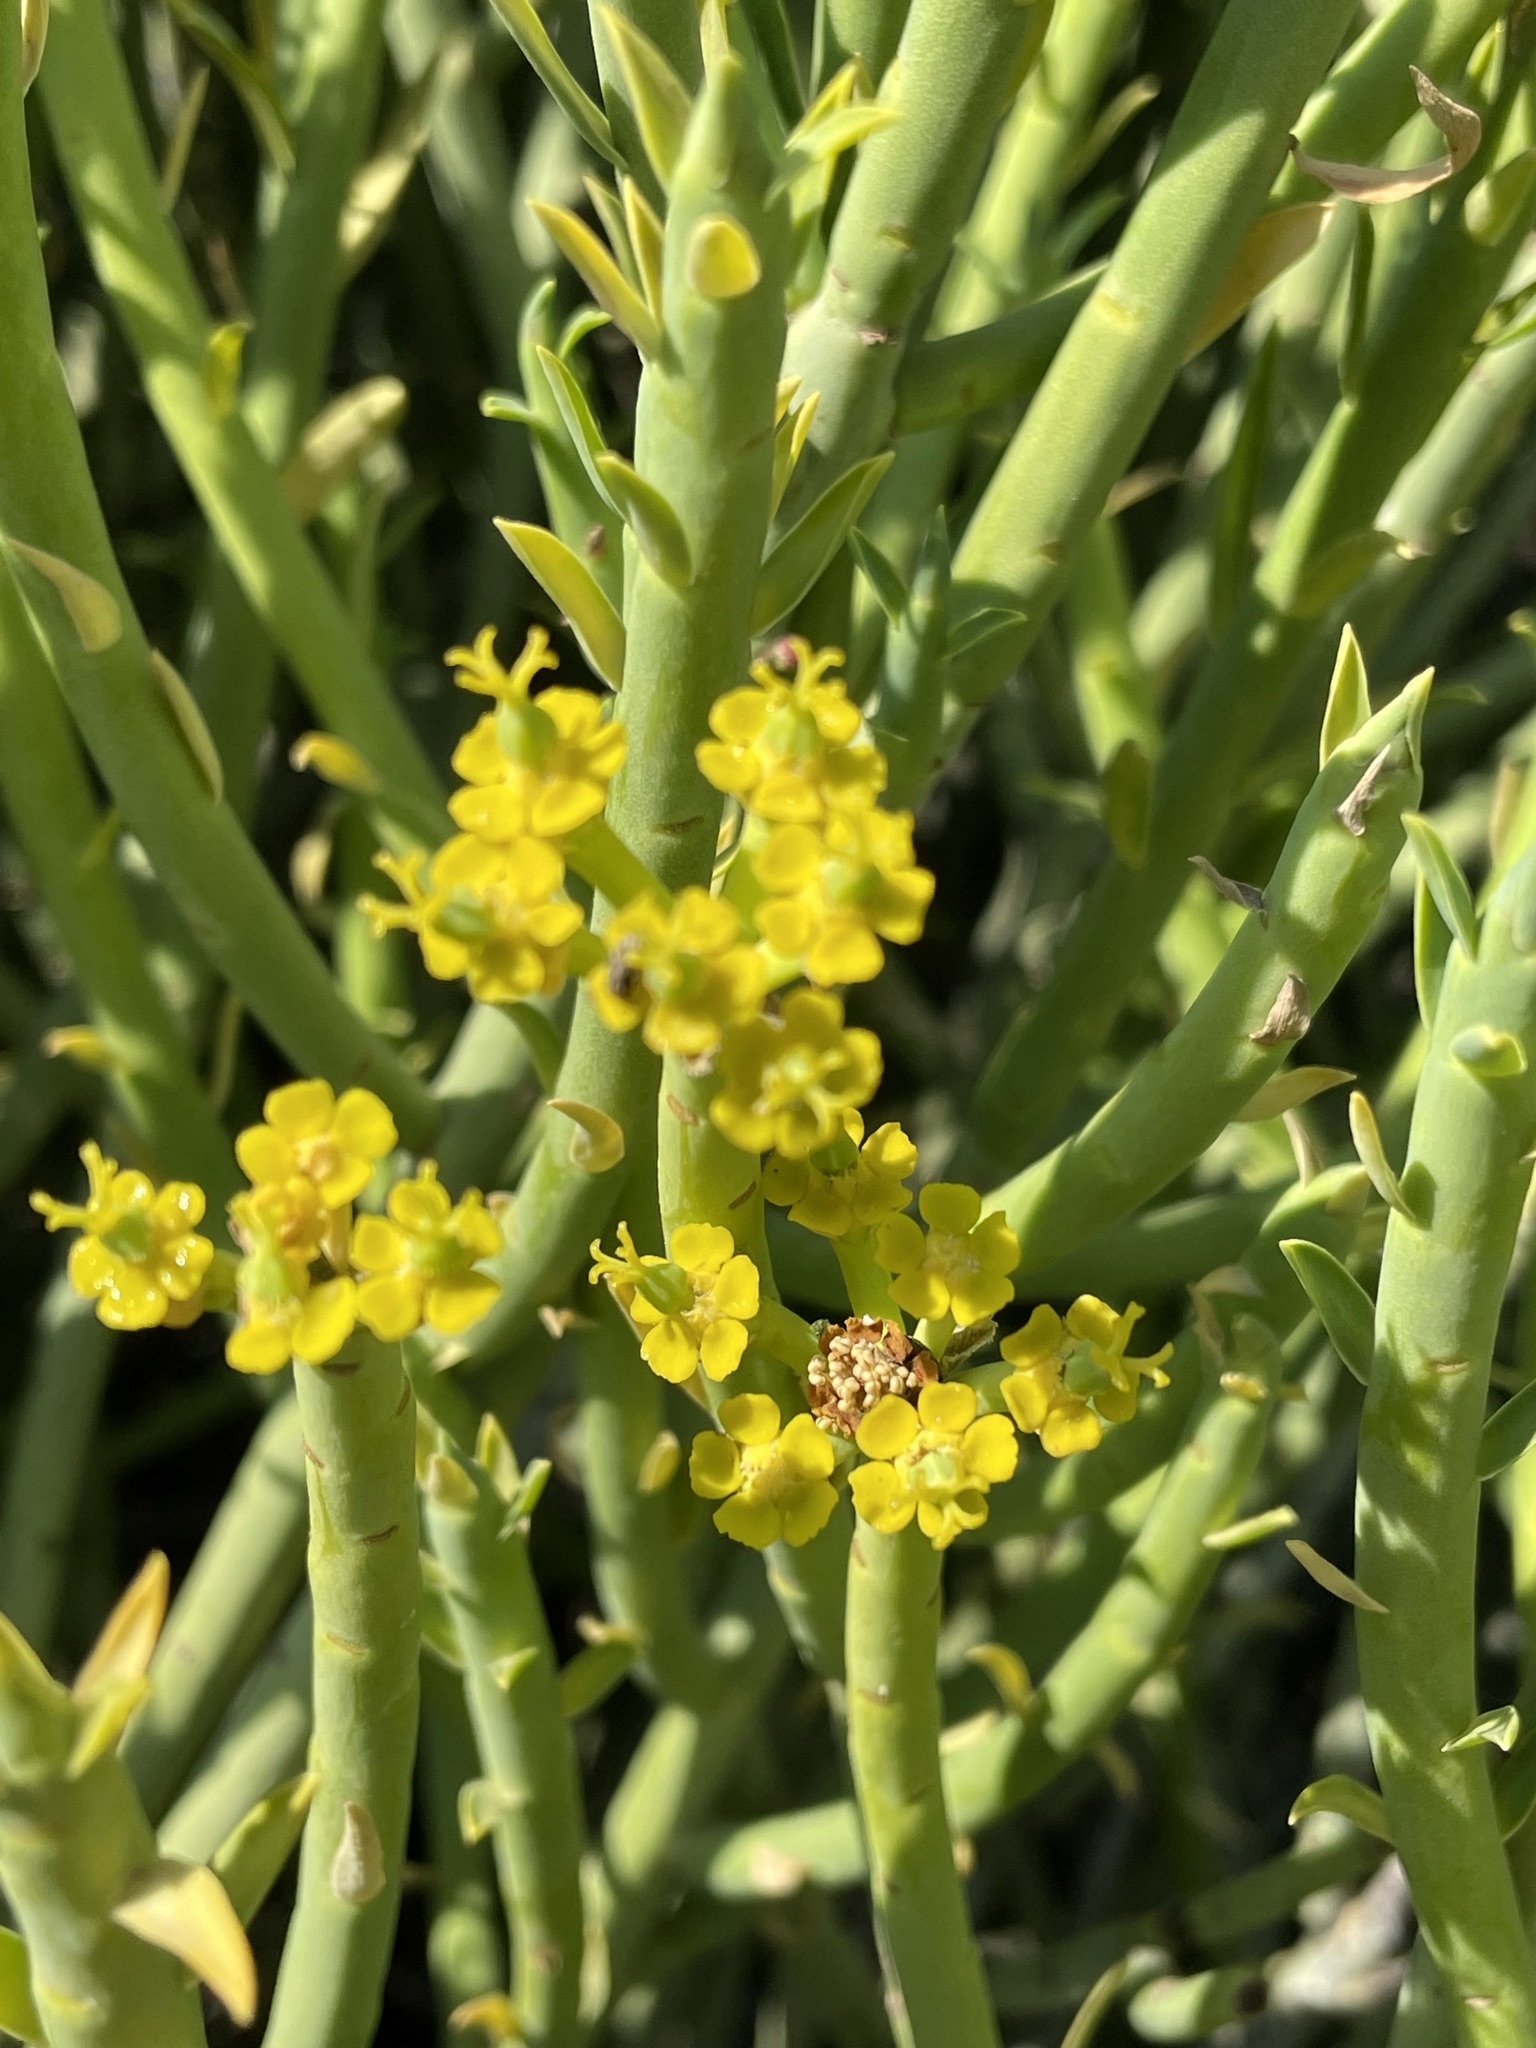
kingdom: Plantae
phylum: Tracheophyta
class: Magnoliopsida
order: Malpighiales
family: Euphorbiaceae
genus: Euphorbia
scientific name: Euphorbia mauritanica
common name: Jackal's-food
